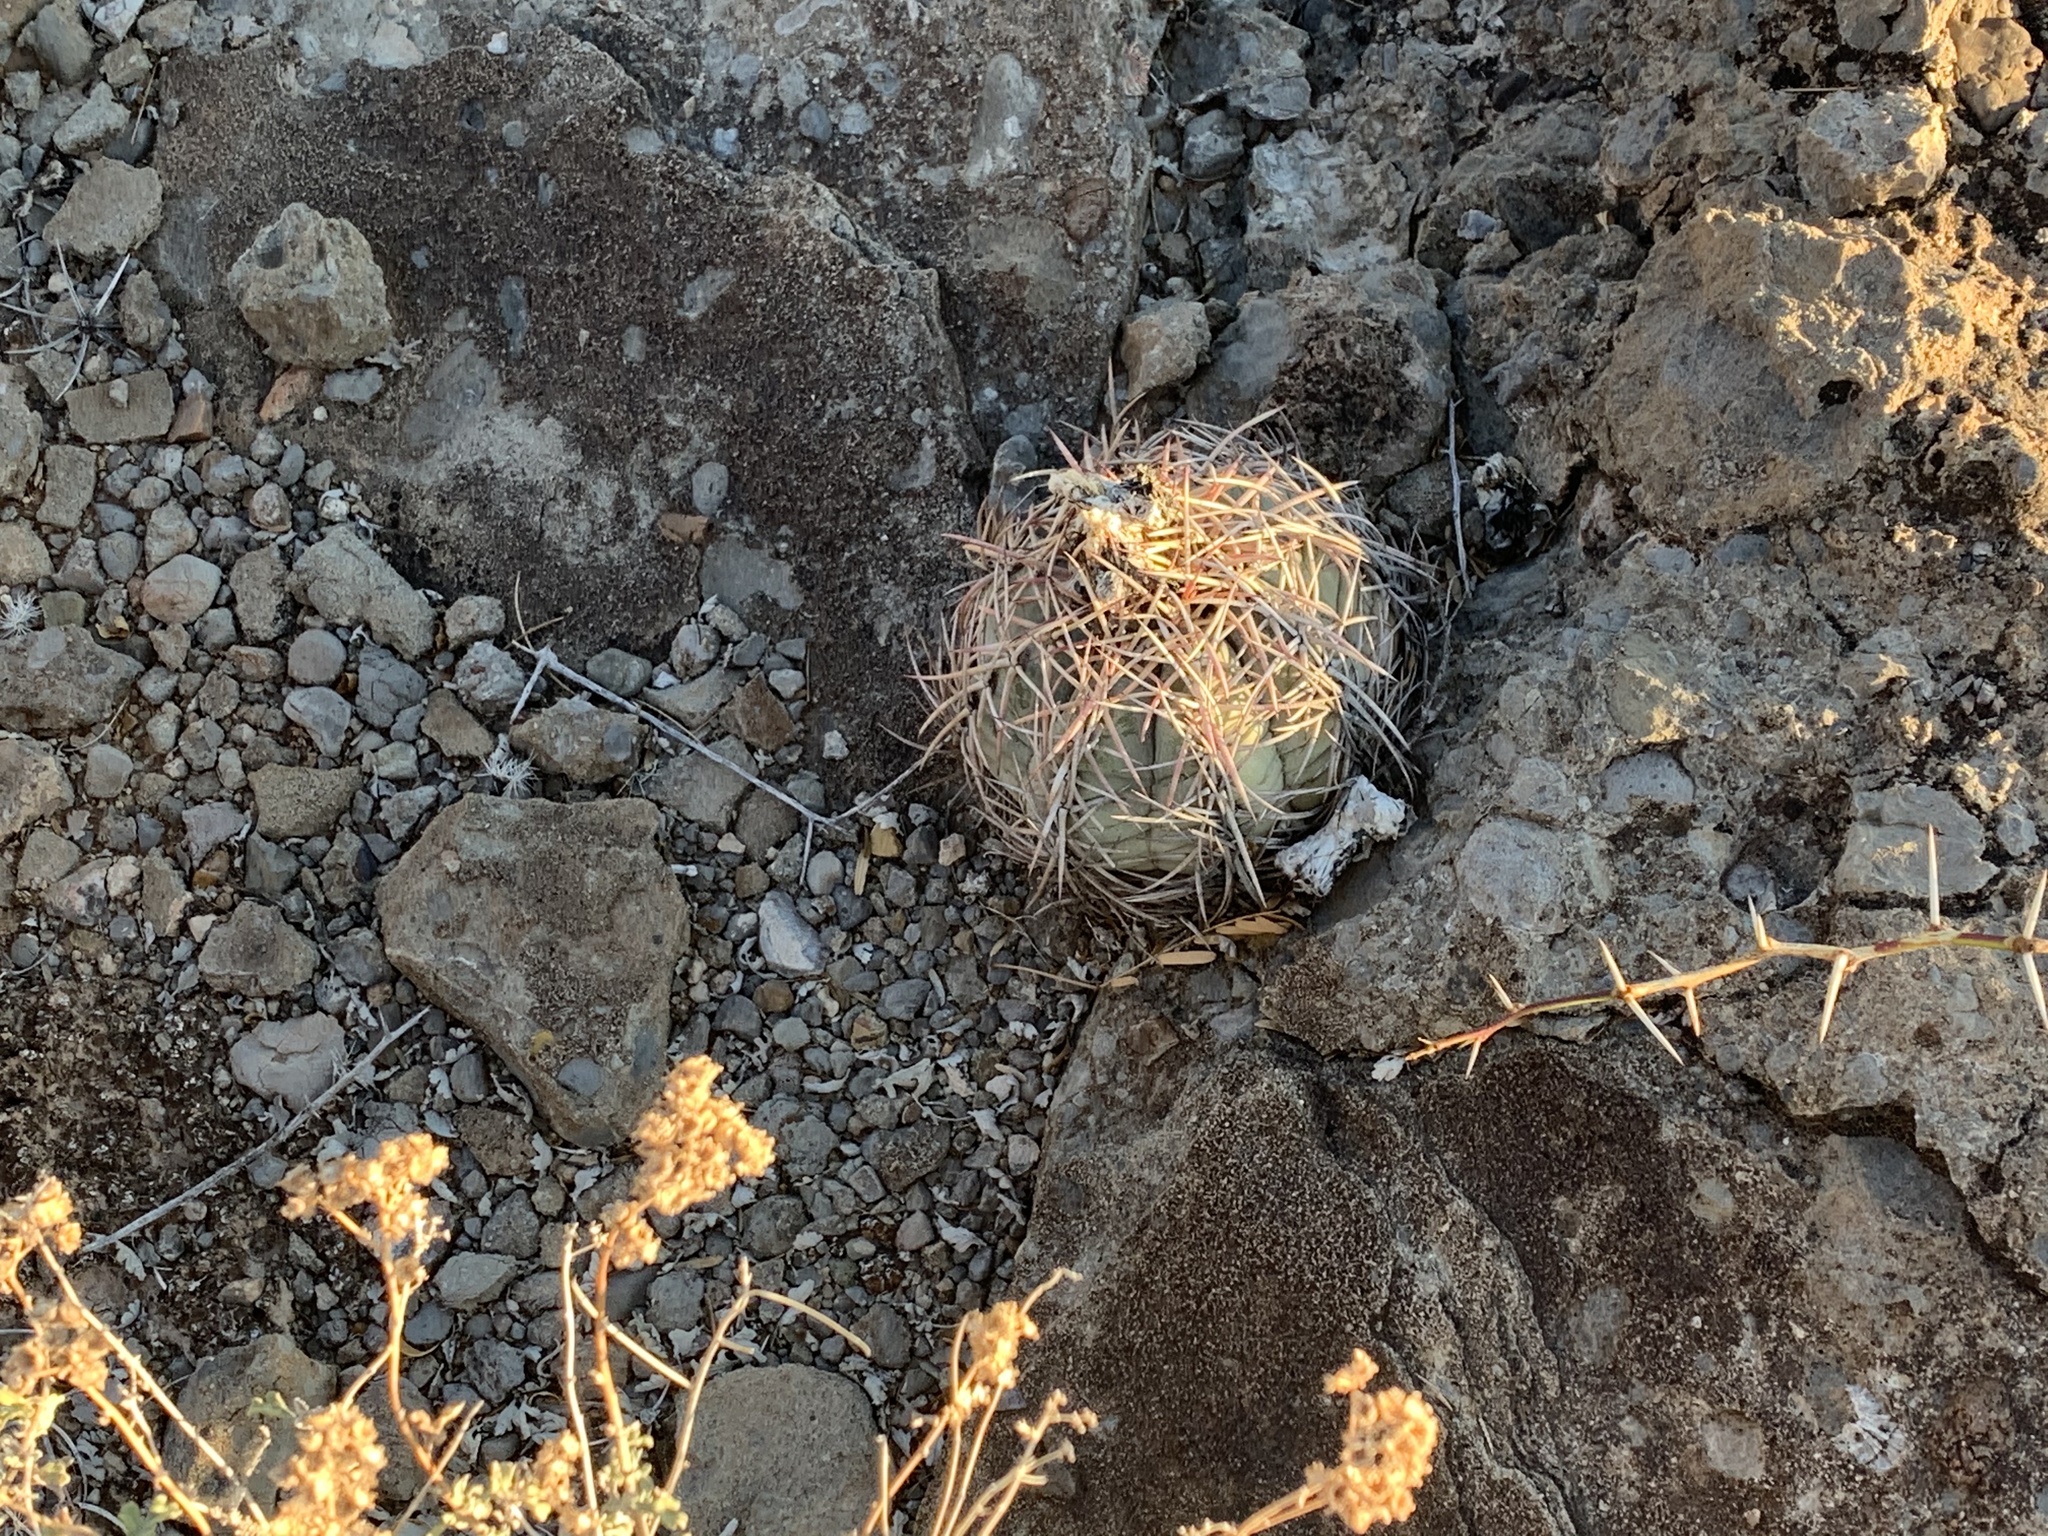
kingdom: Plantae
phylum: Tracheophyta
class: Magnoliopsida
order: Caryophyllales
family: Cactaceae
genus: Echinocactus
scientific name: Echinocactus horizonthalonius
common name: Devilshead
